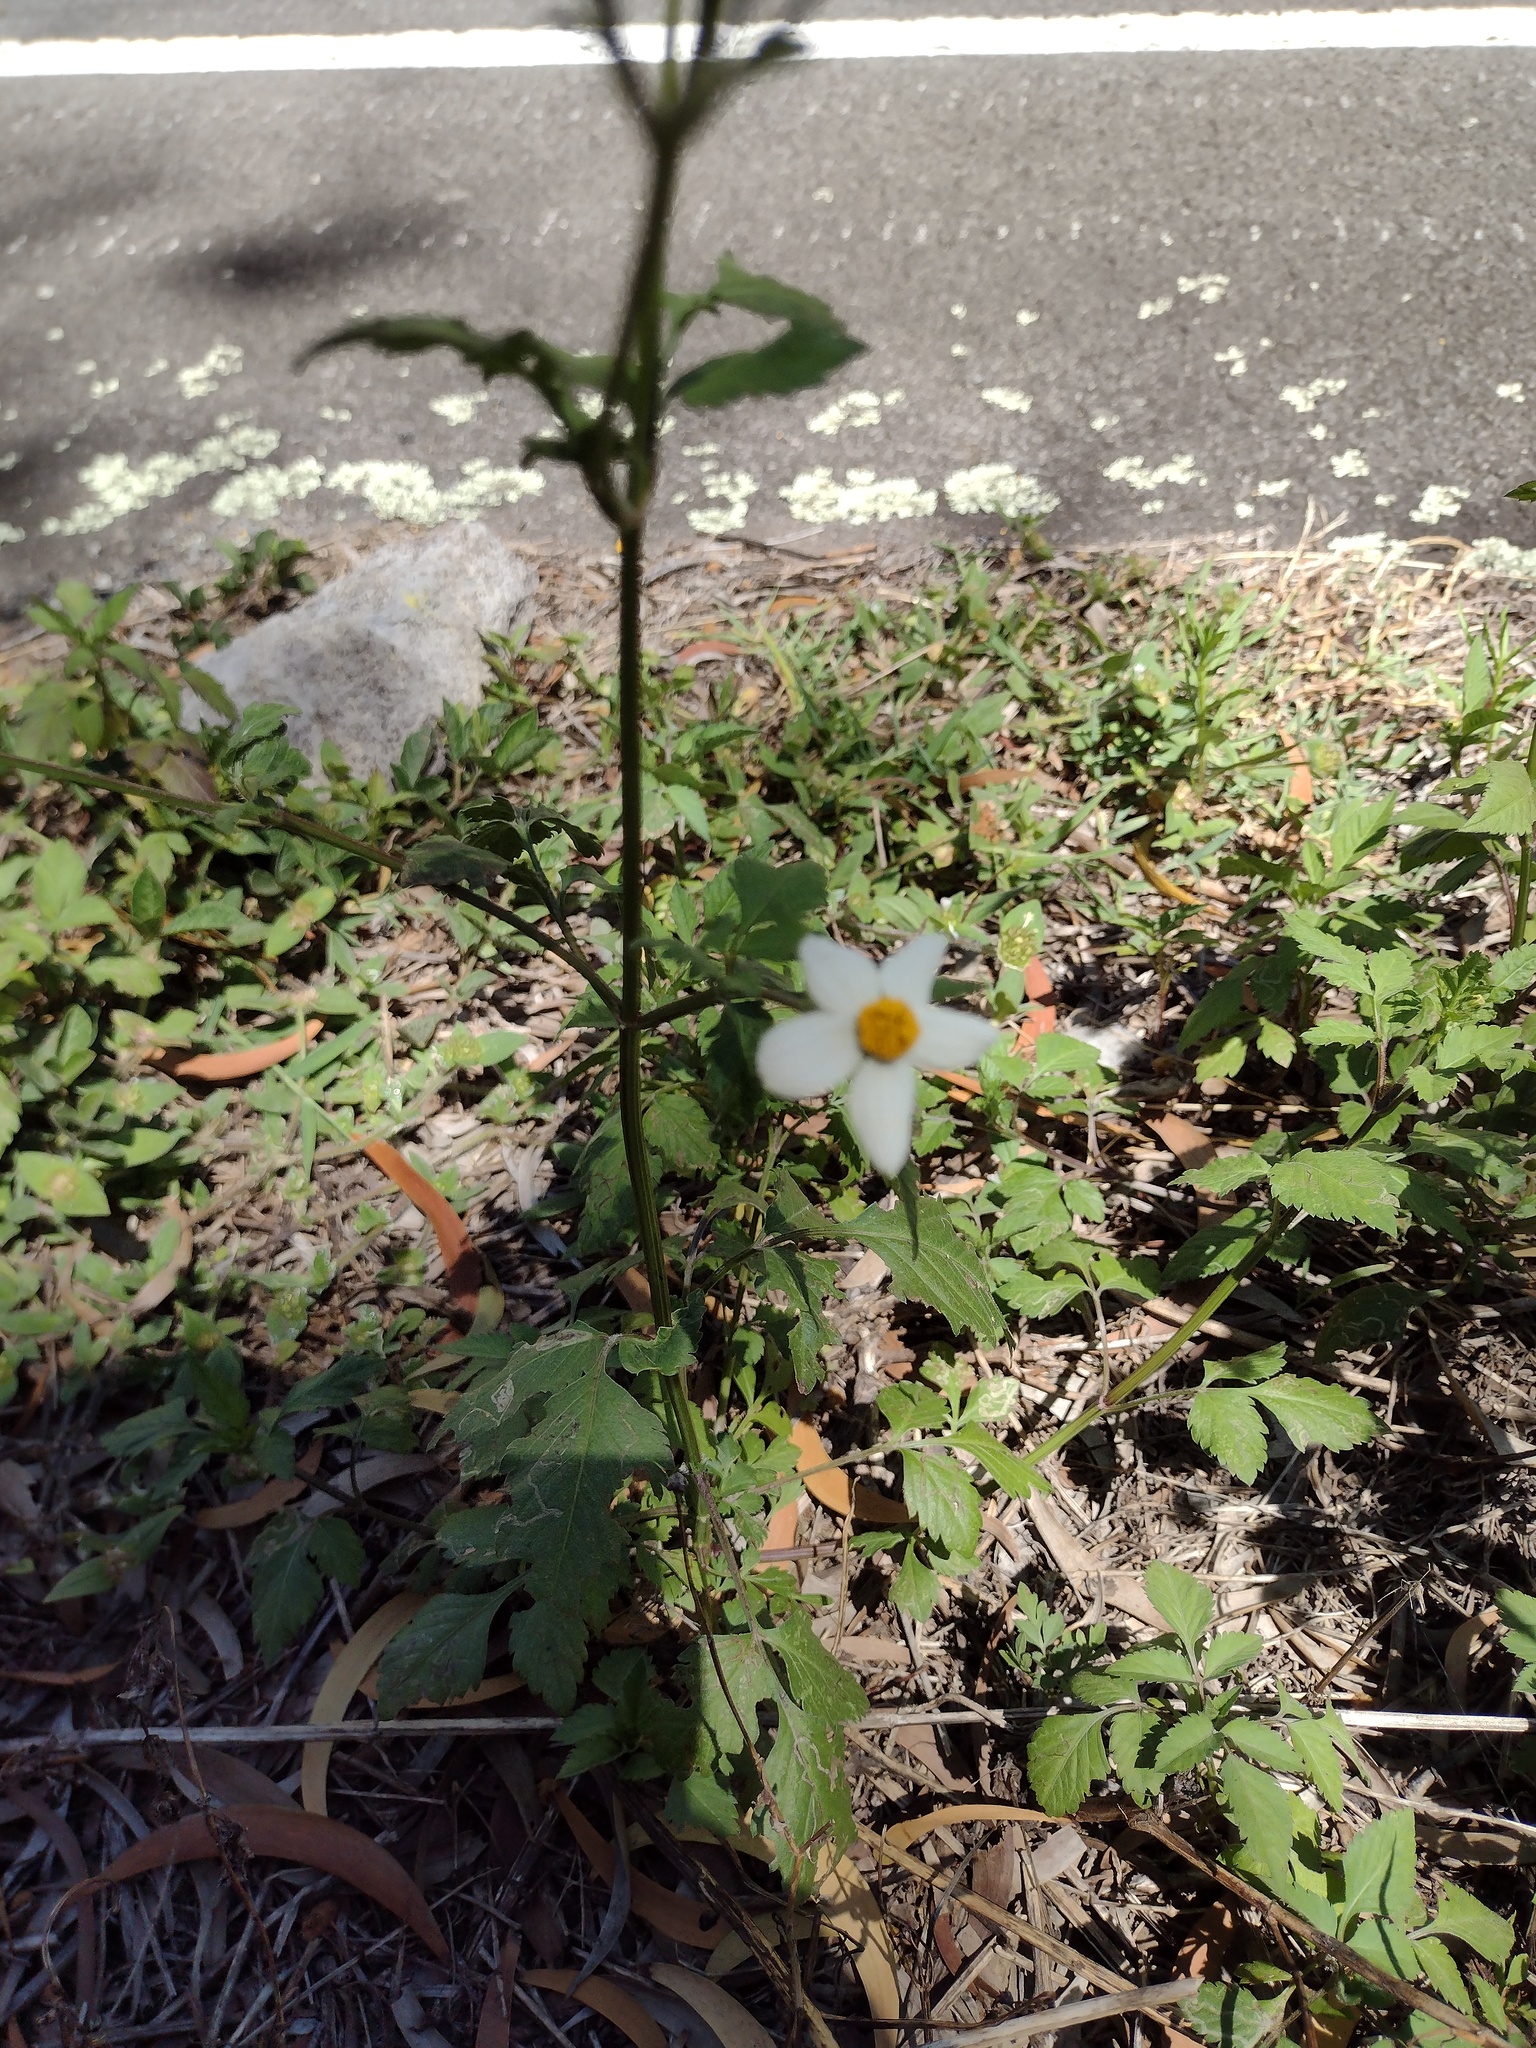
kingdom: Plantae
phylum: Tracheophyta
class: Magnoliopsida
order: Asterales
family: Asteraceae
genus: Bidens
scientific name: Bidens alba
